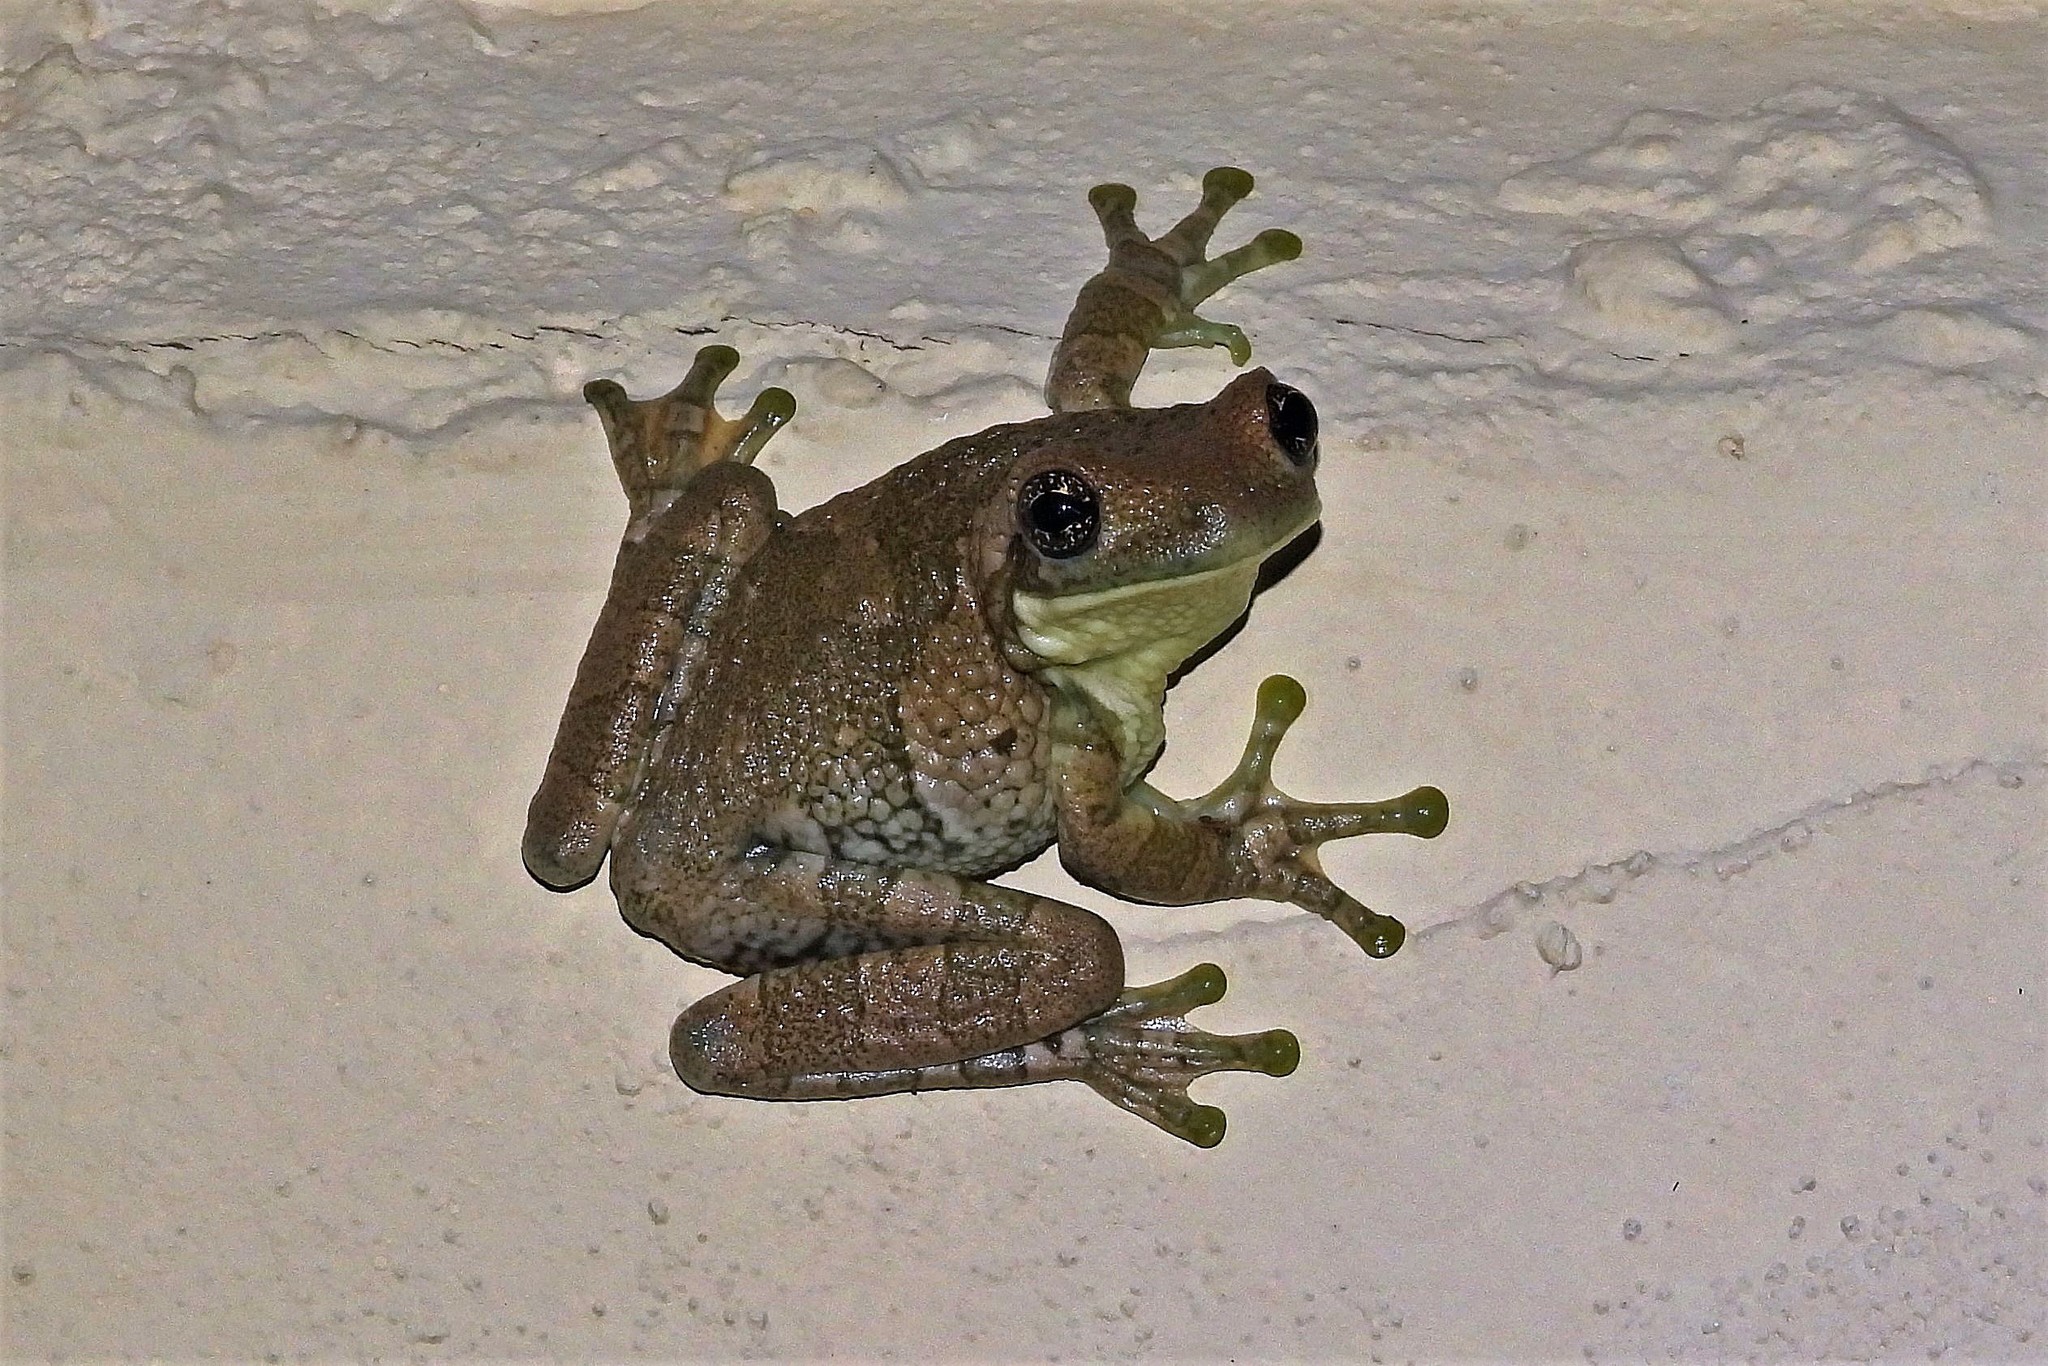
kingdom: Animalia
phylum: Chordata
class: Amphibia
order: Anura
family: Hylidae
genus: Trachycephalus
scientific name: Trachycephalus typhonius
